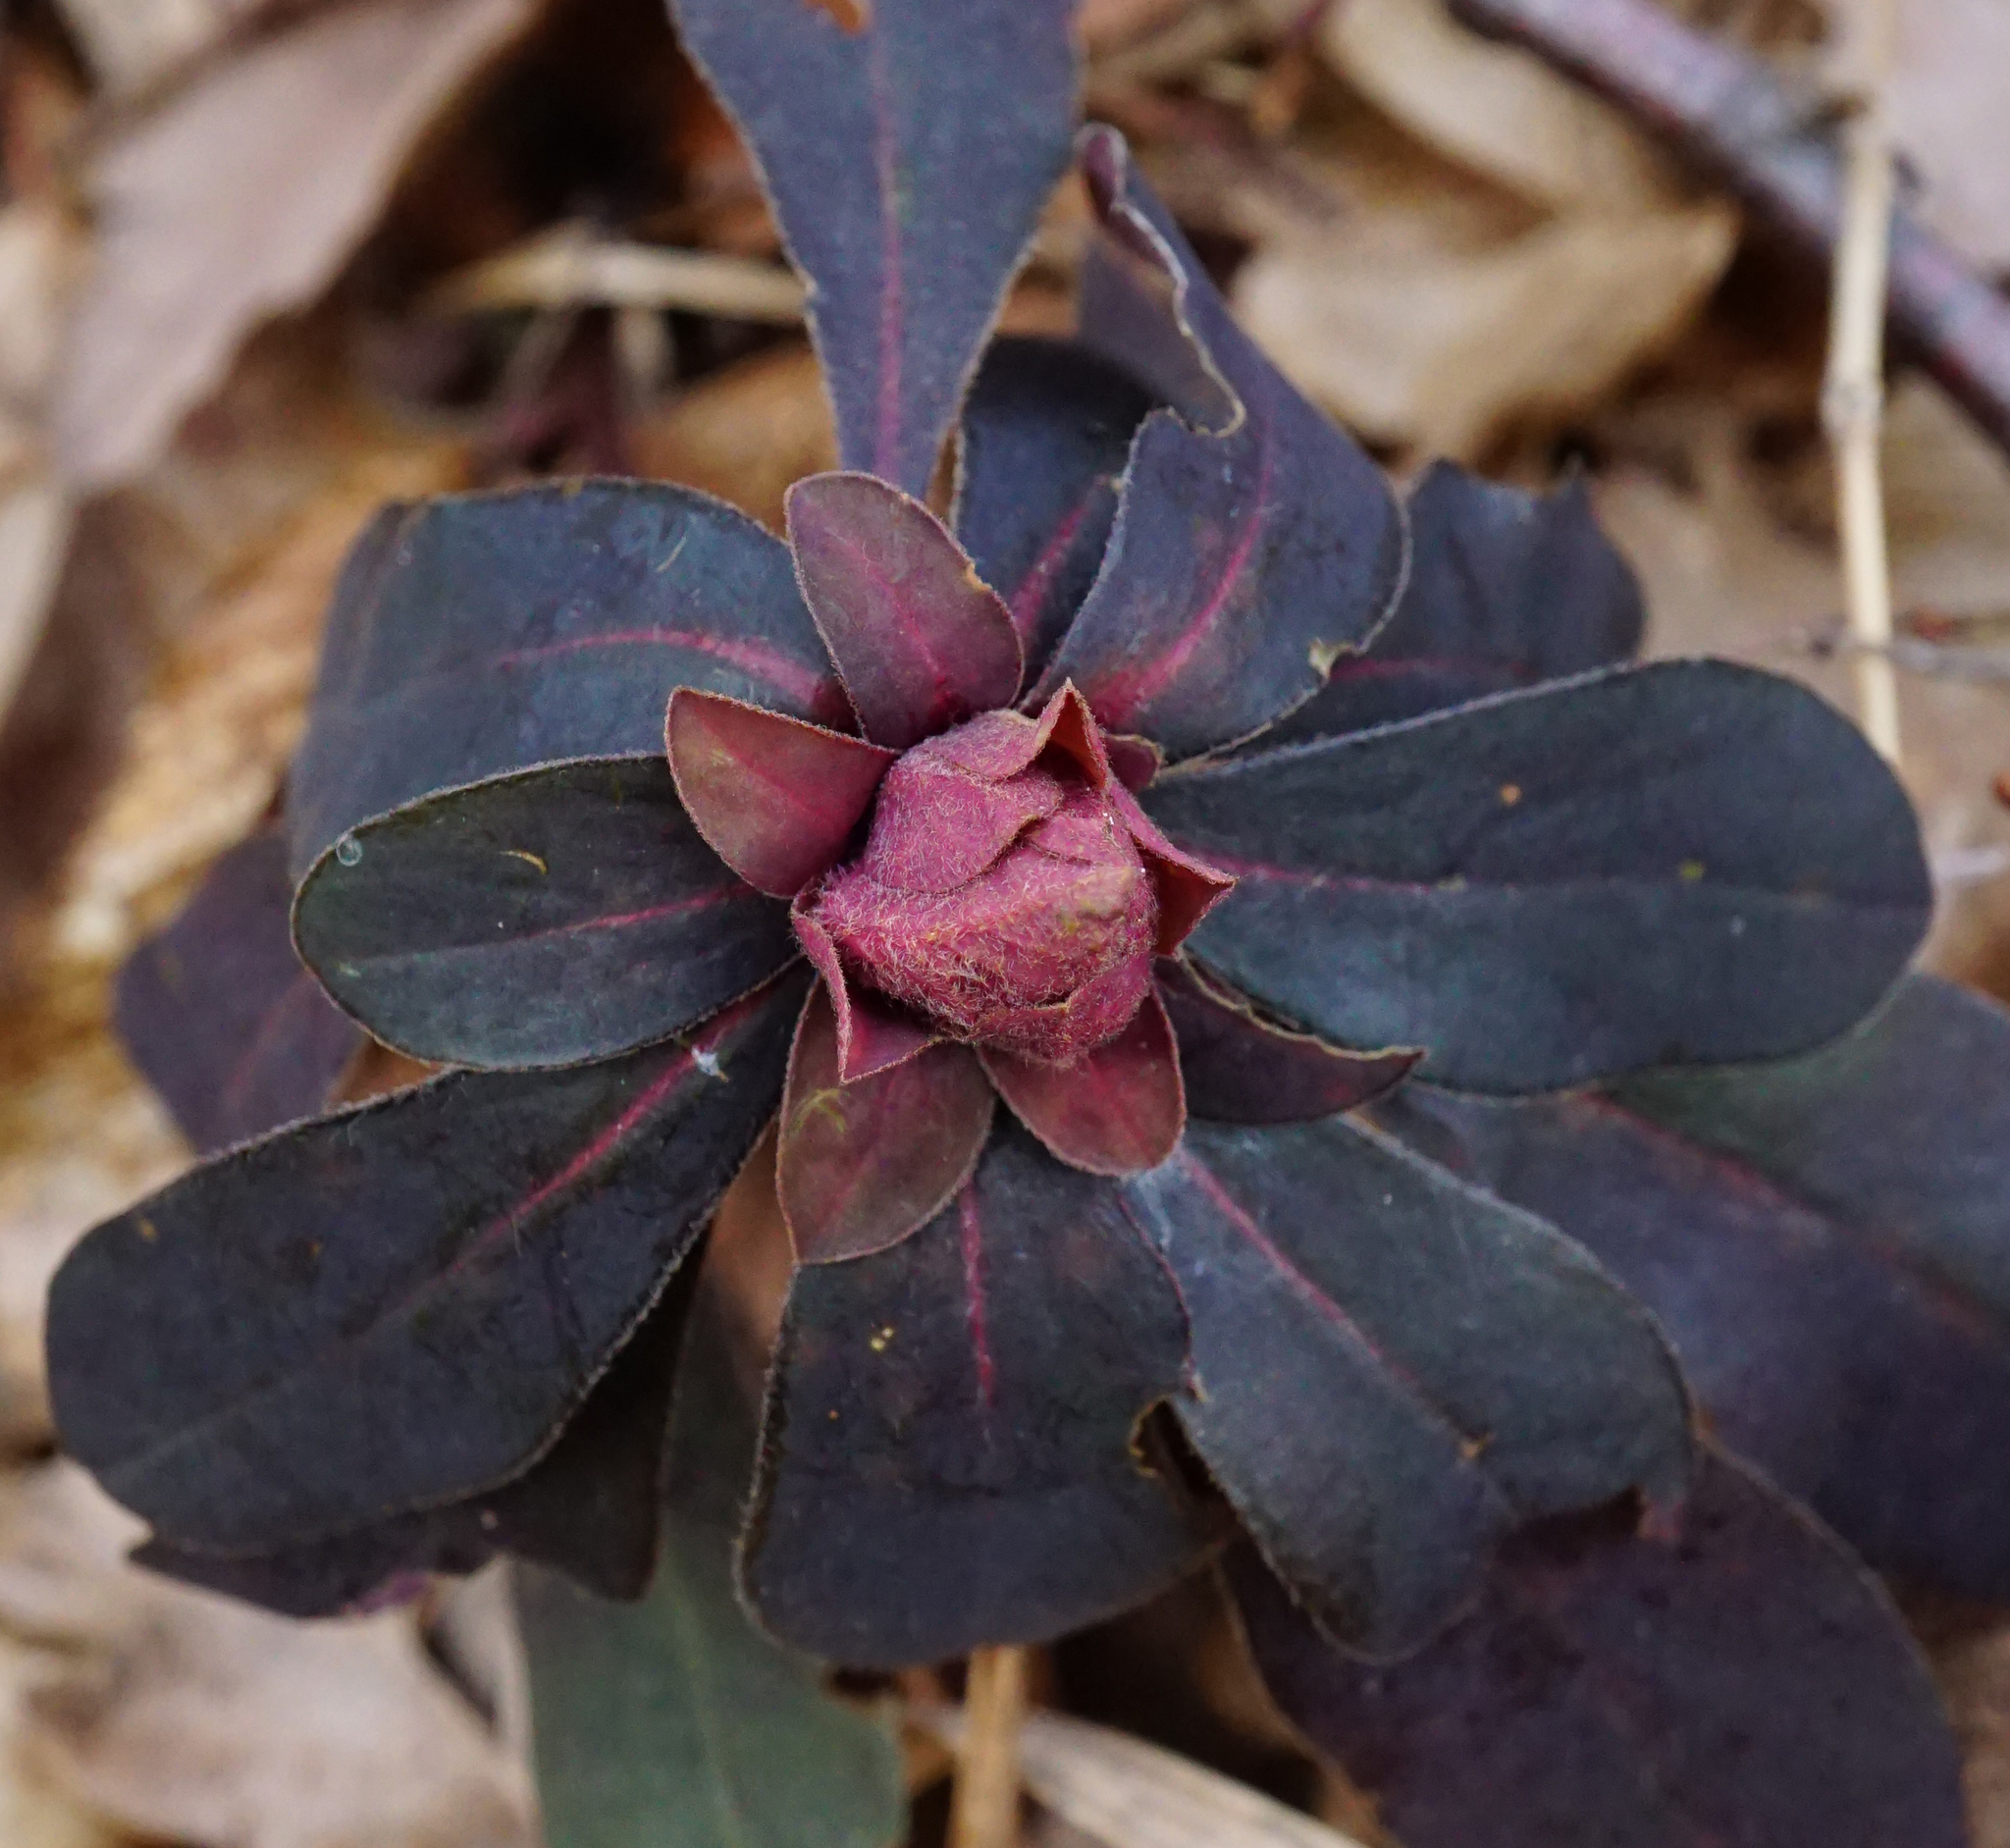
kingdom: Plantae
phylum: Tracheophyta
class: Magnoliopsida
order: Malpighiales
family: Euphorbiaceae
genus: Euphorbia
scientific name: Euphorbia amygdaloides
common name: Wood spurge
